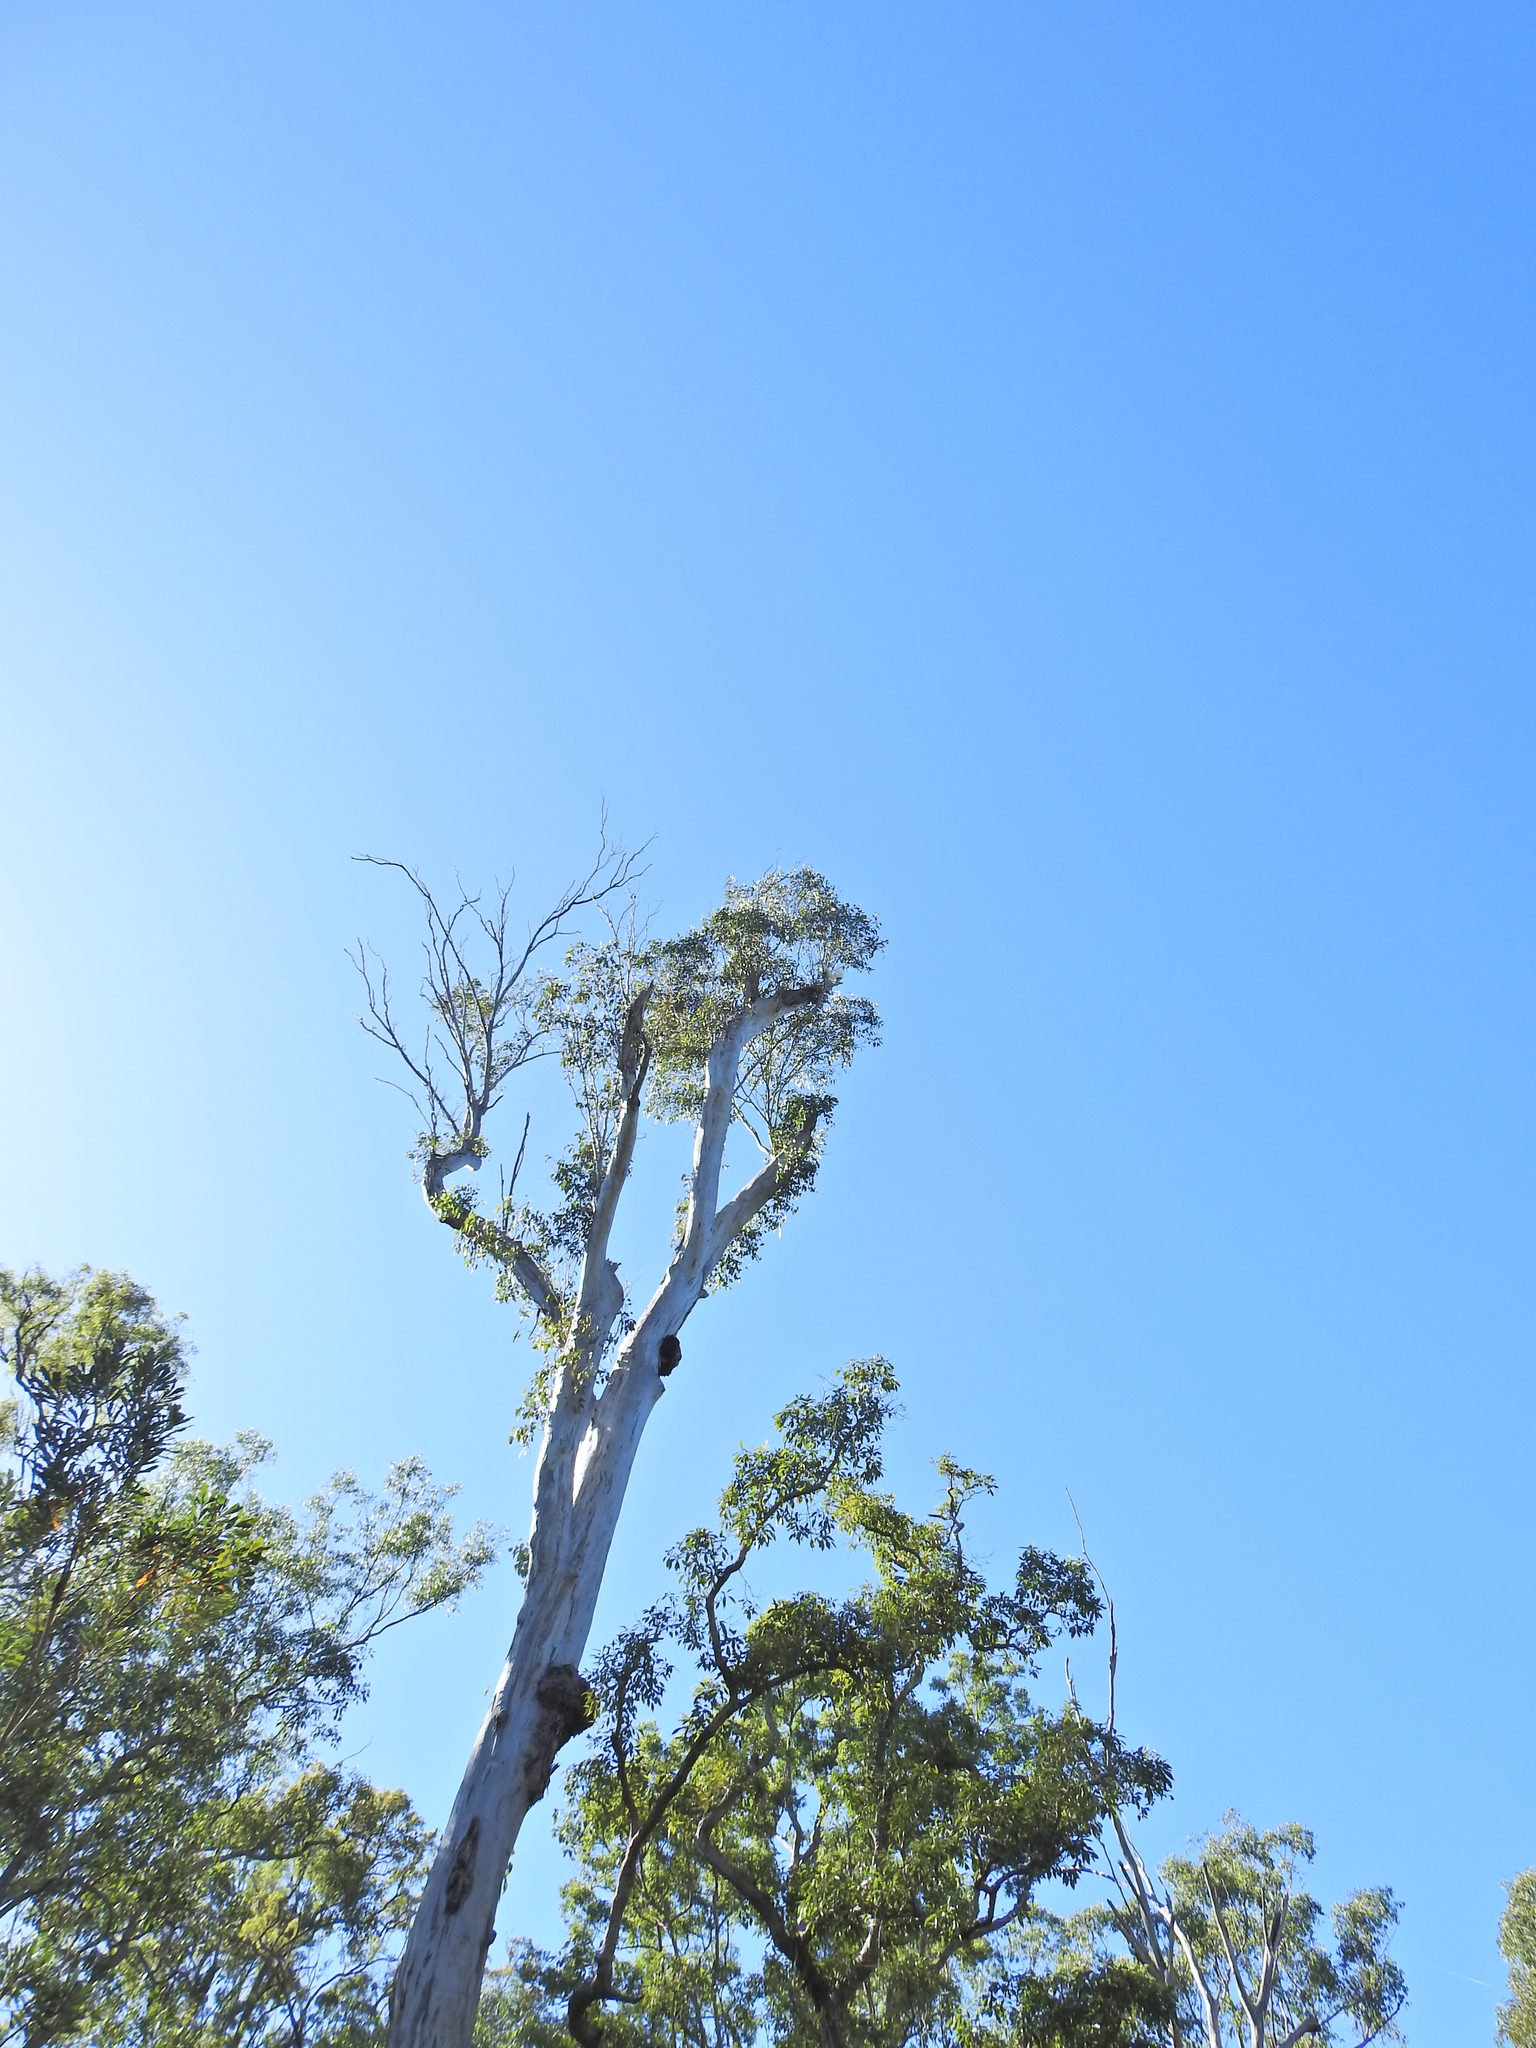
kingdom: Animalia
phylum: Chordata
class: Aves
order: Psittaciformes
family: Psittacidae
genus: Cacatua
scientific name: Cacatua galerita
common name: Sulphur-crested cockatoo
